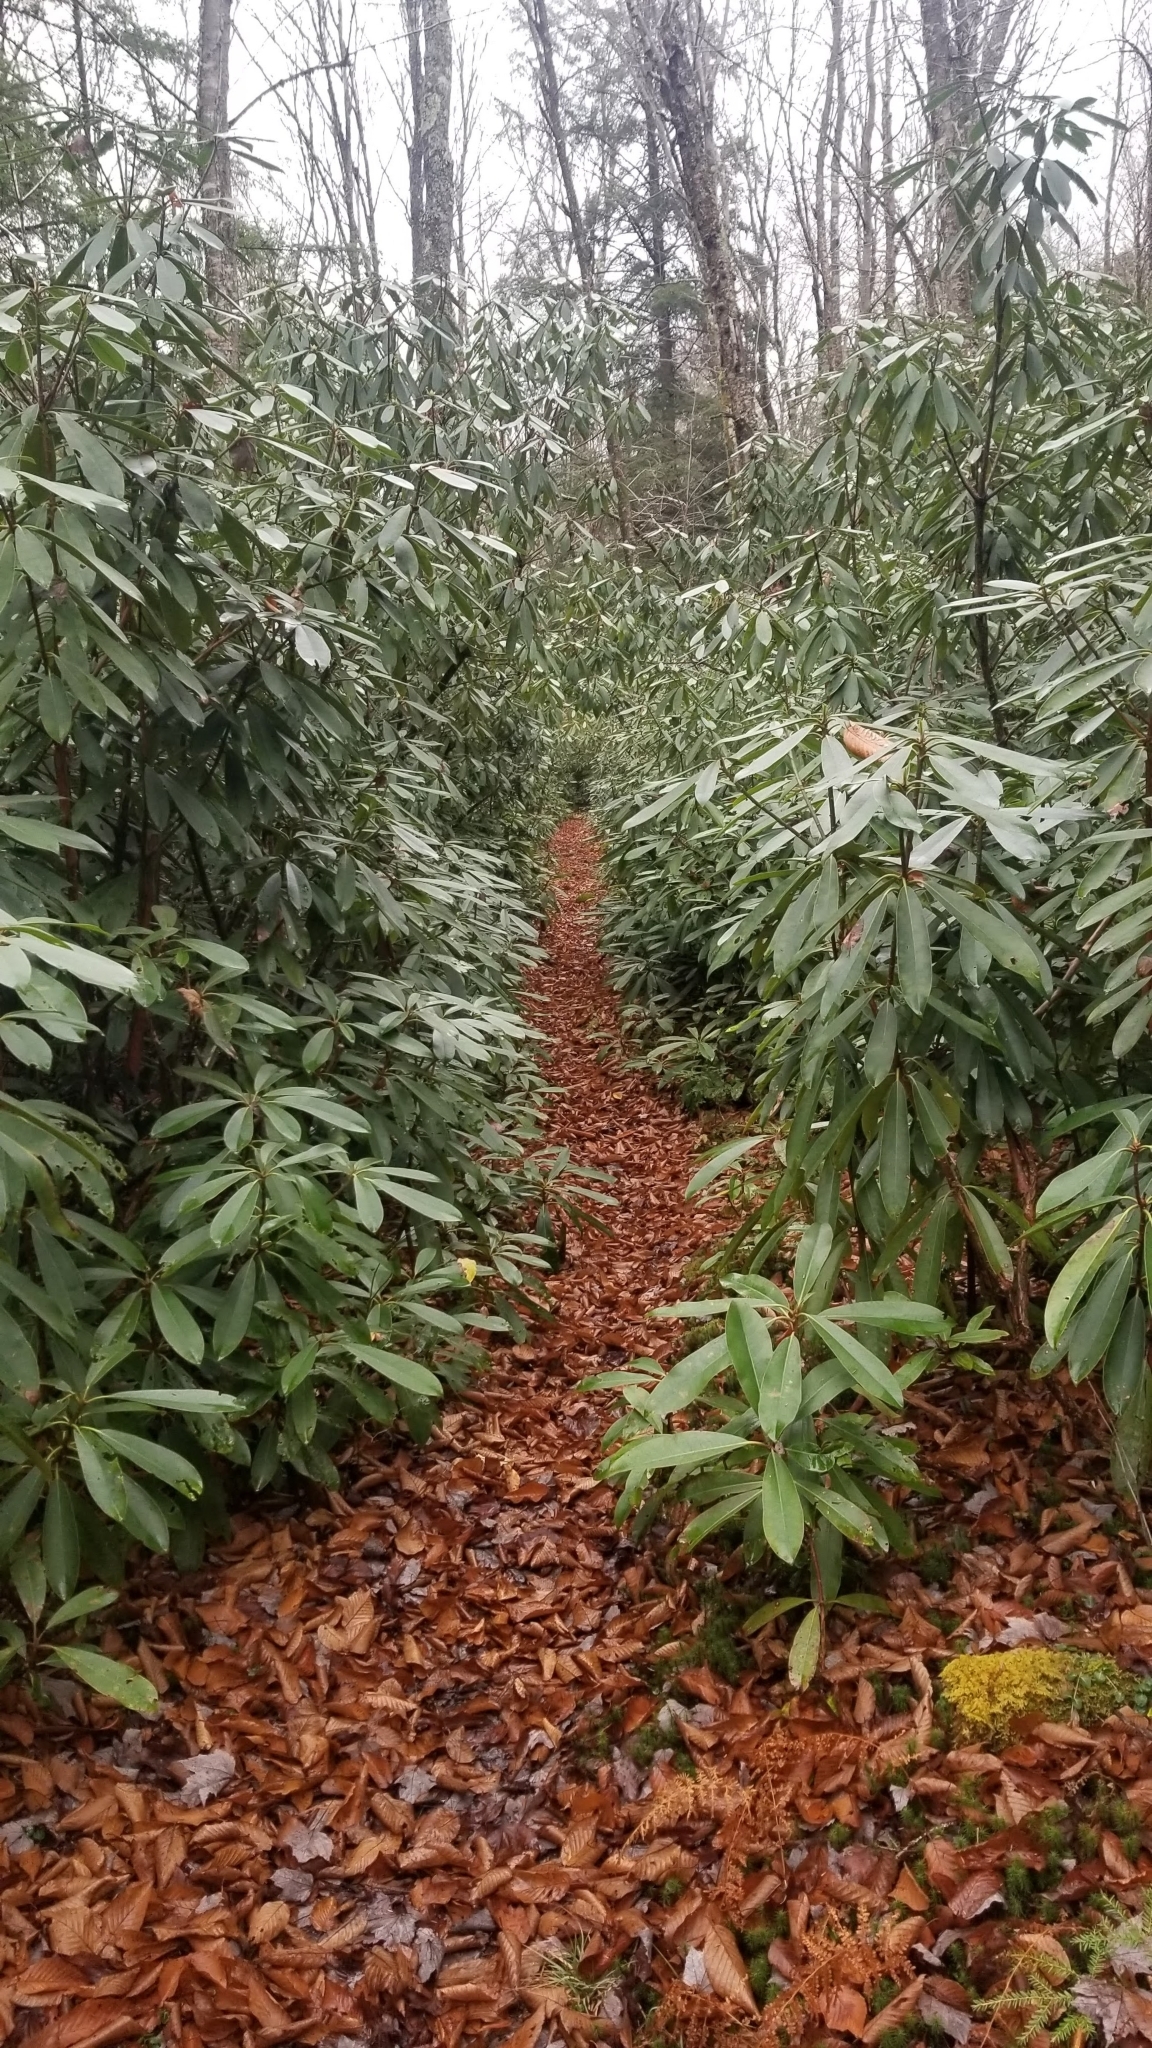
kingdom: Plantae
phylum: Tracheophyta
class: Magnoliopsida
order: Ericales
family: Ericaceae
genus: Rhododendron
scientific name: Rhododendron maximum
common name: Great rhododendron
